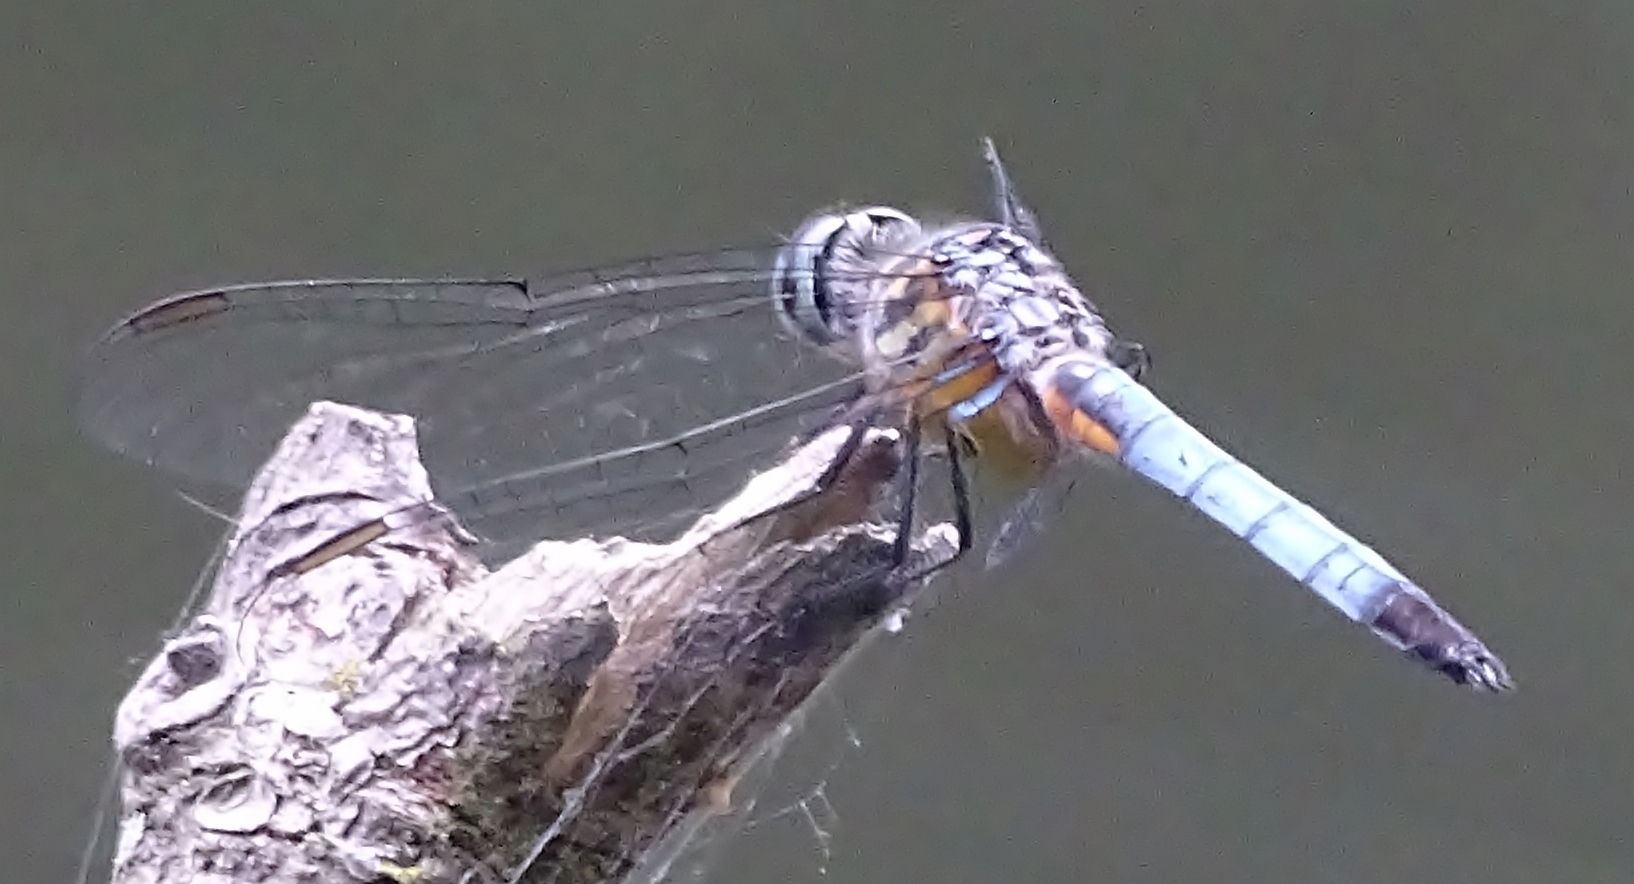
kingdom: Animalia
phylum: Arthropoda
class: Insecta
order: Odonata
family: Libellulidae
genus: Pachydiplax
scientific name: Pachydiplax longipennis
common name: Blue dasher
